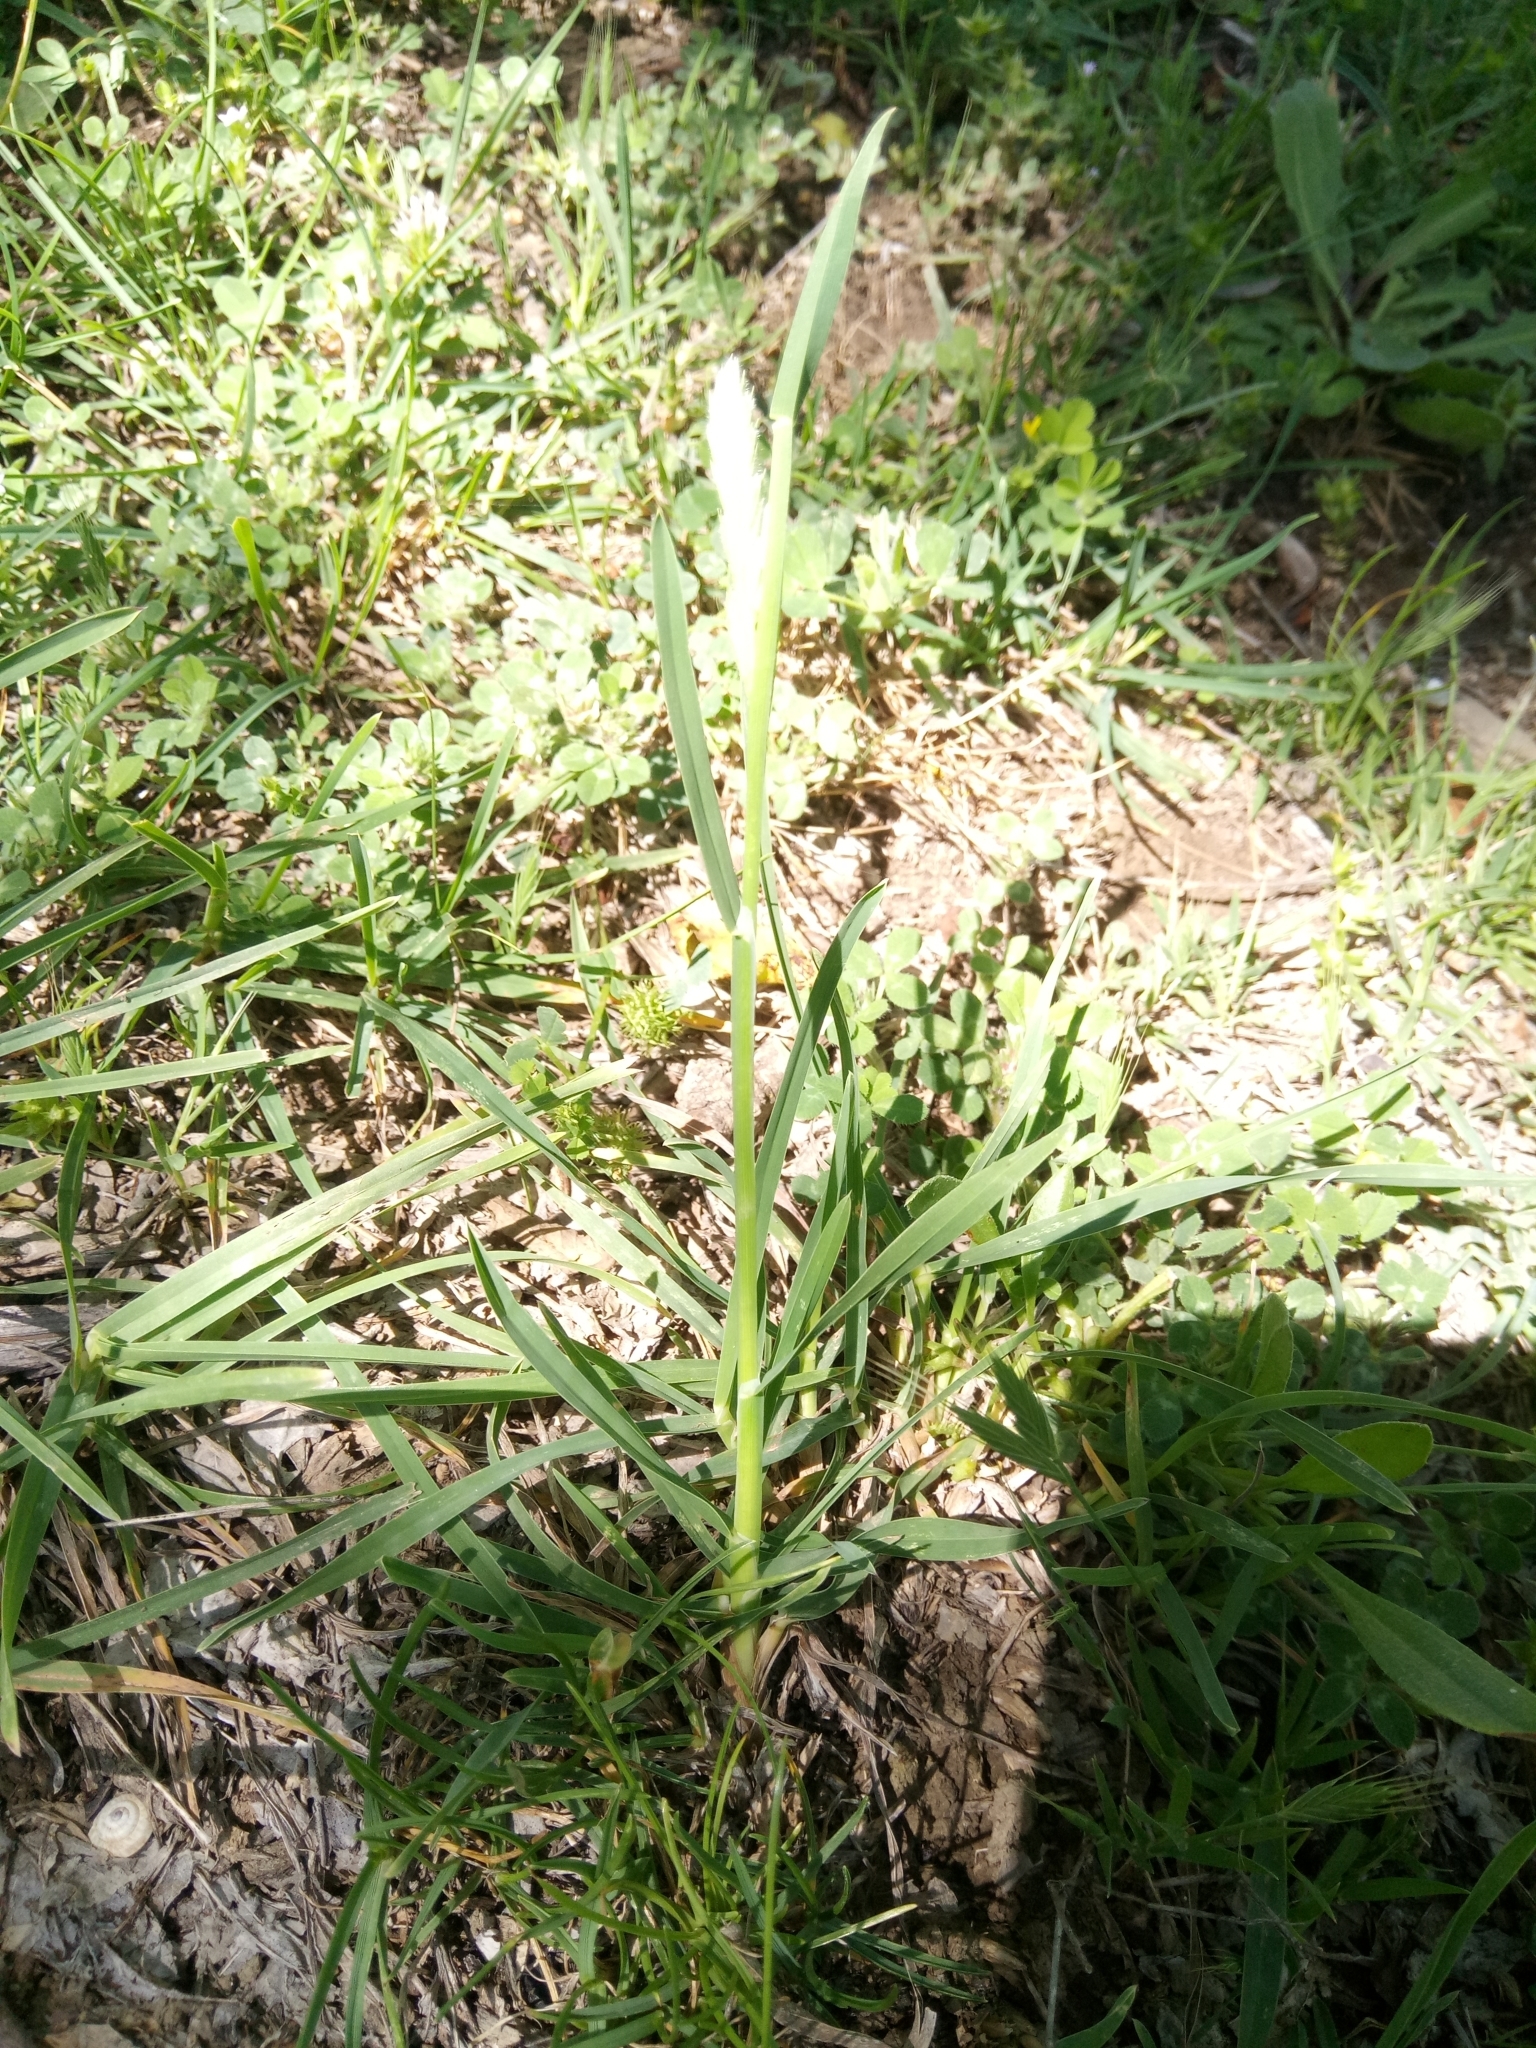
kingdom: Plantae
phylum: Tracheophyta
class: Liliopsida
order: Poales
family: Poaceae
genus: Dactylis
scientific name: Dactylis glomerata
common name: Orchardgrass
